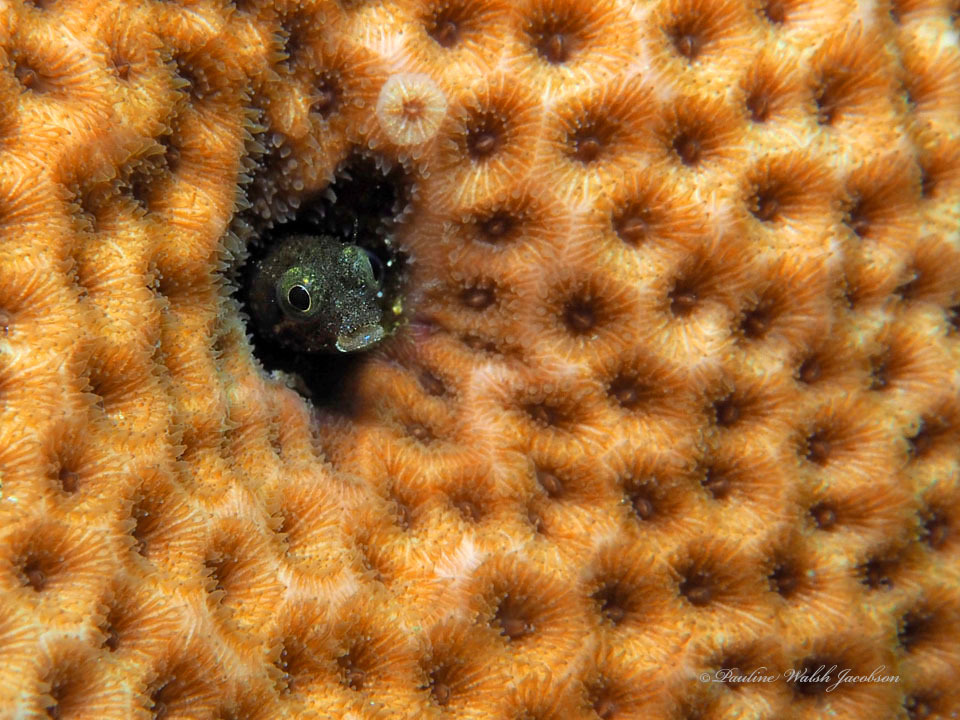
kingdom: Animalia
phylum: Chordata
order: Perciformes
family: Chaenopsidae
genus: Acanthemblemaria
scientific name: Acanthemblemaria spinosa
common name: Spinyhead blenny
